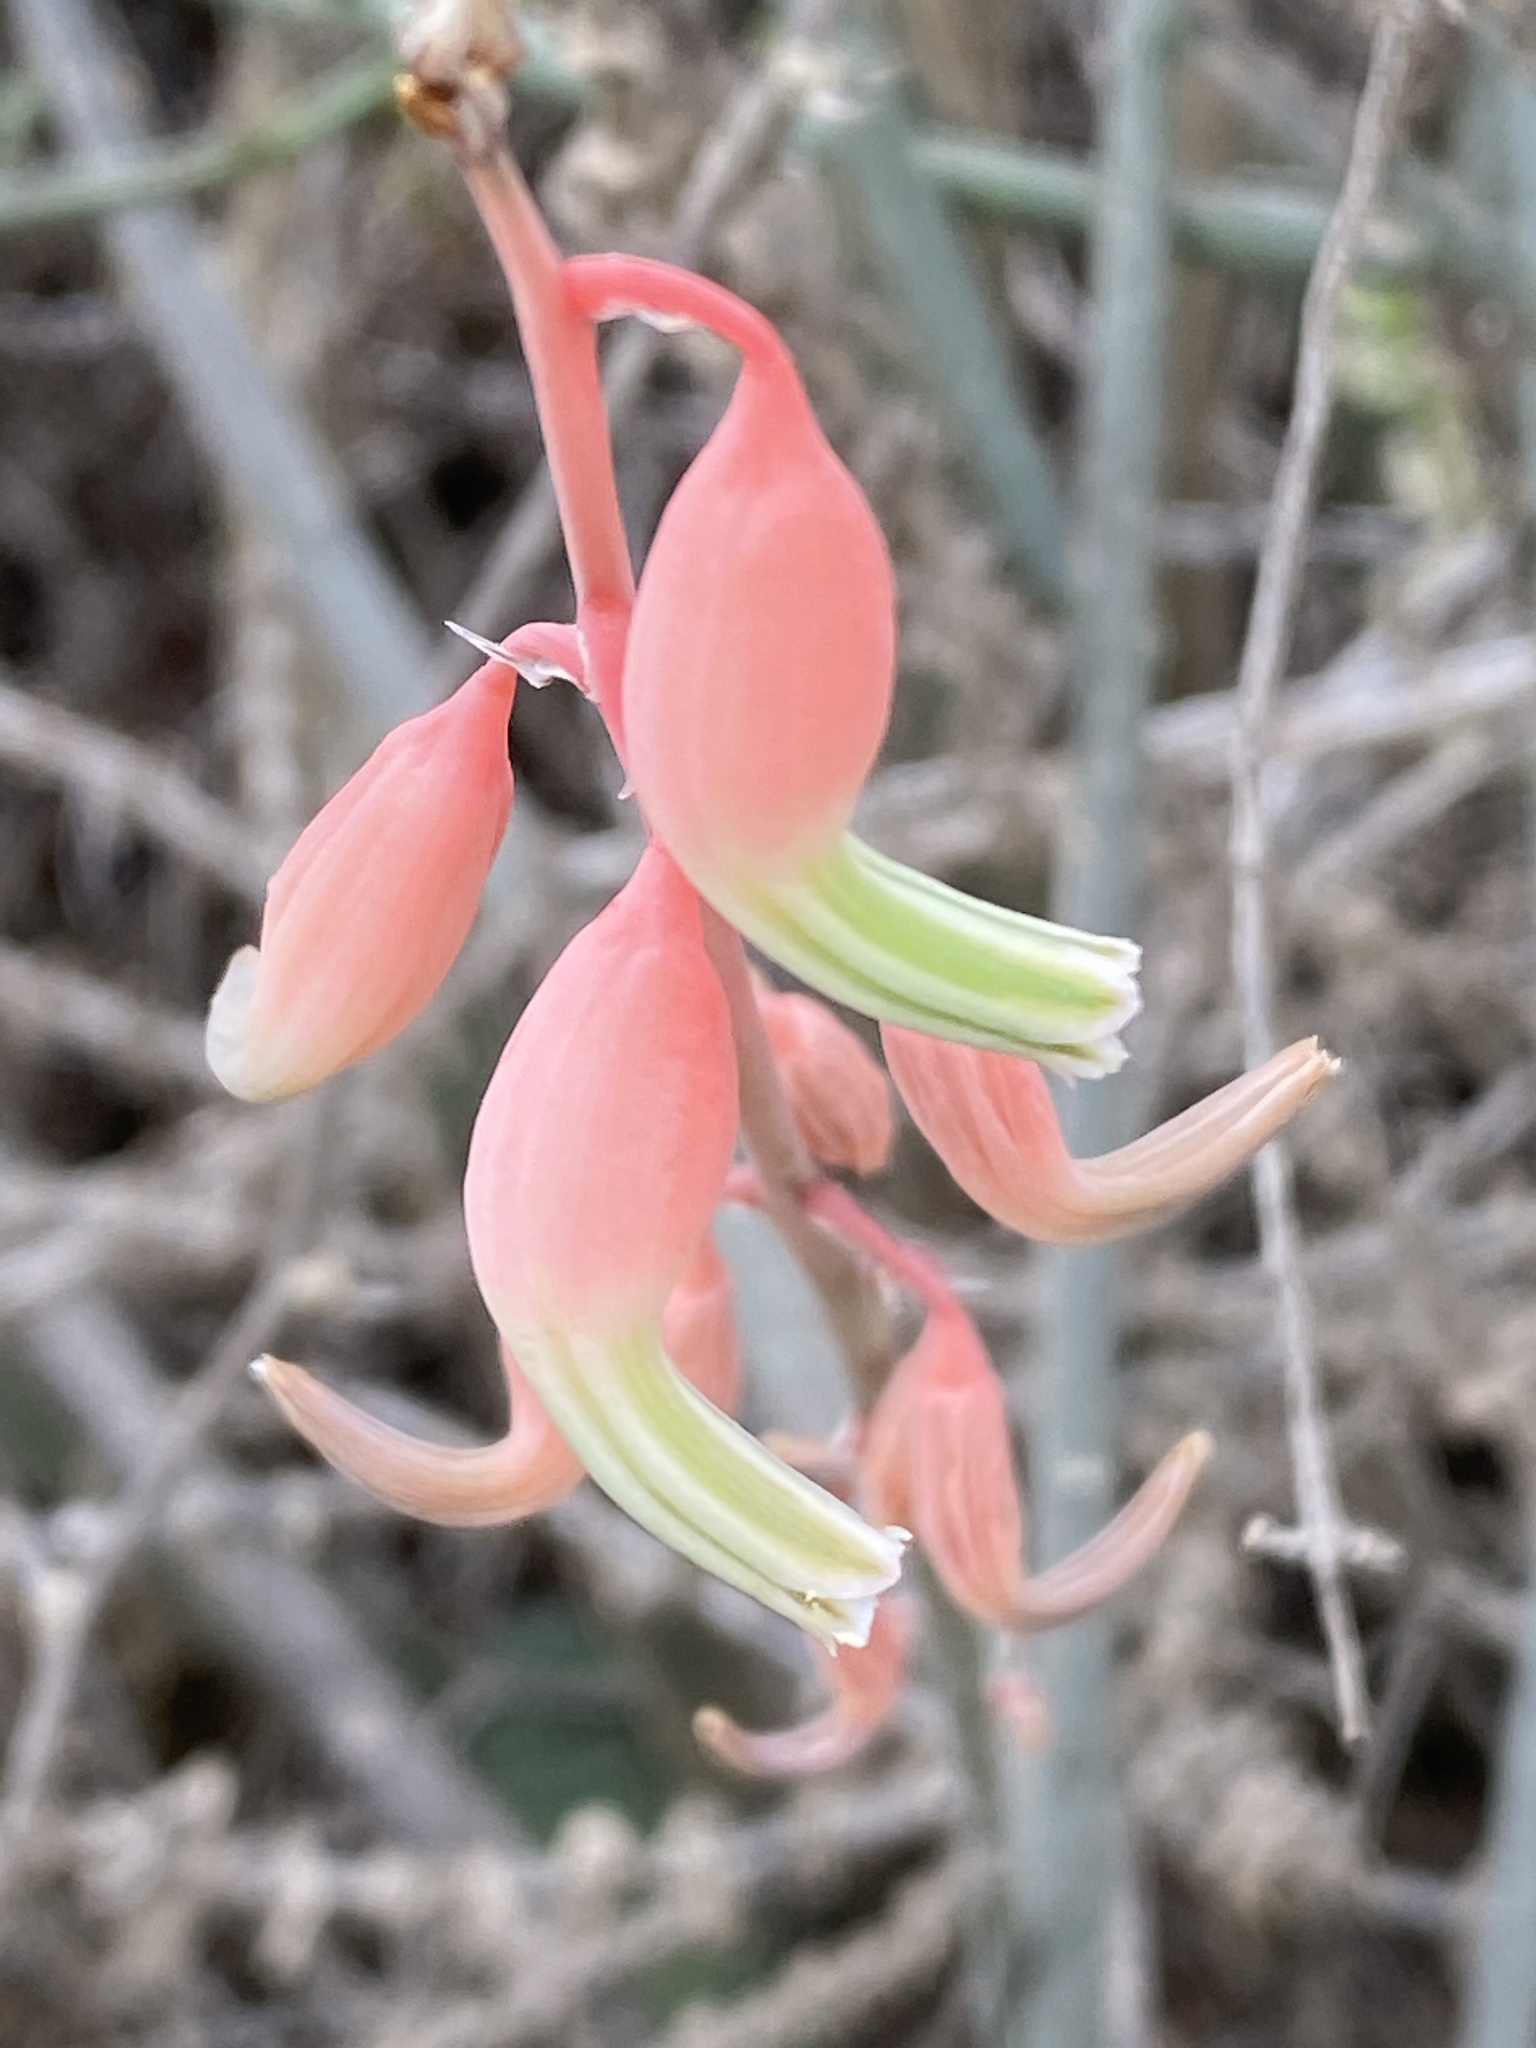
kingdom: Plantae
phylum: Tracheophyta
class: Liliopsida
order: Asparagales
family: Asphodelaceae
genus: Gasteria
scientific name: Gasteria brachyphylla
